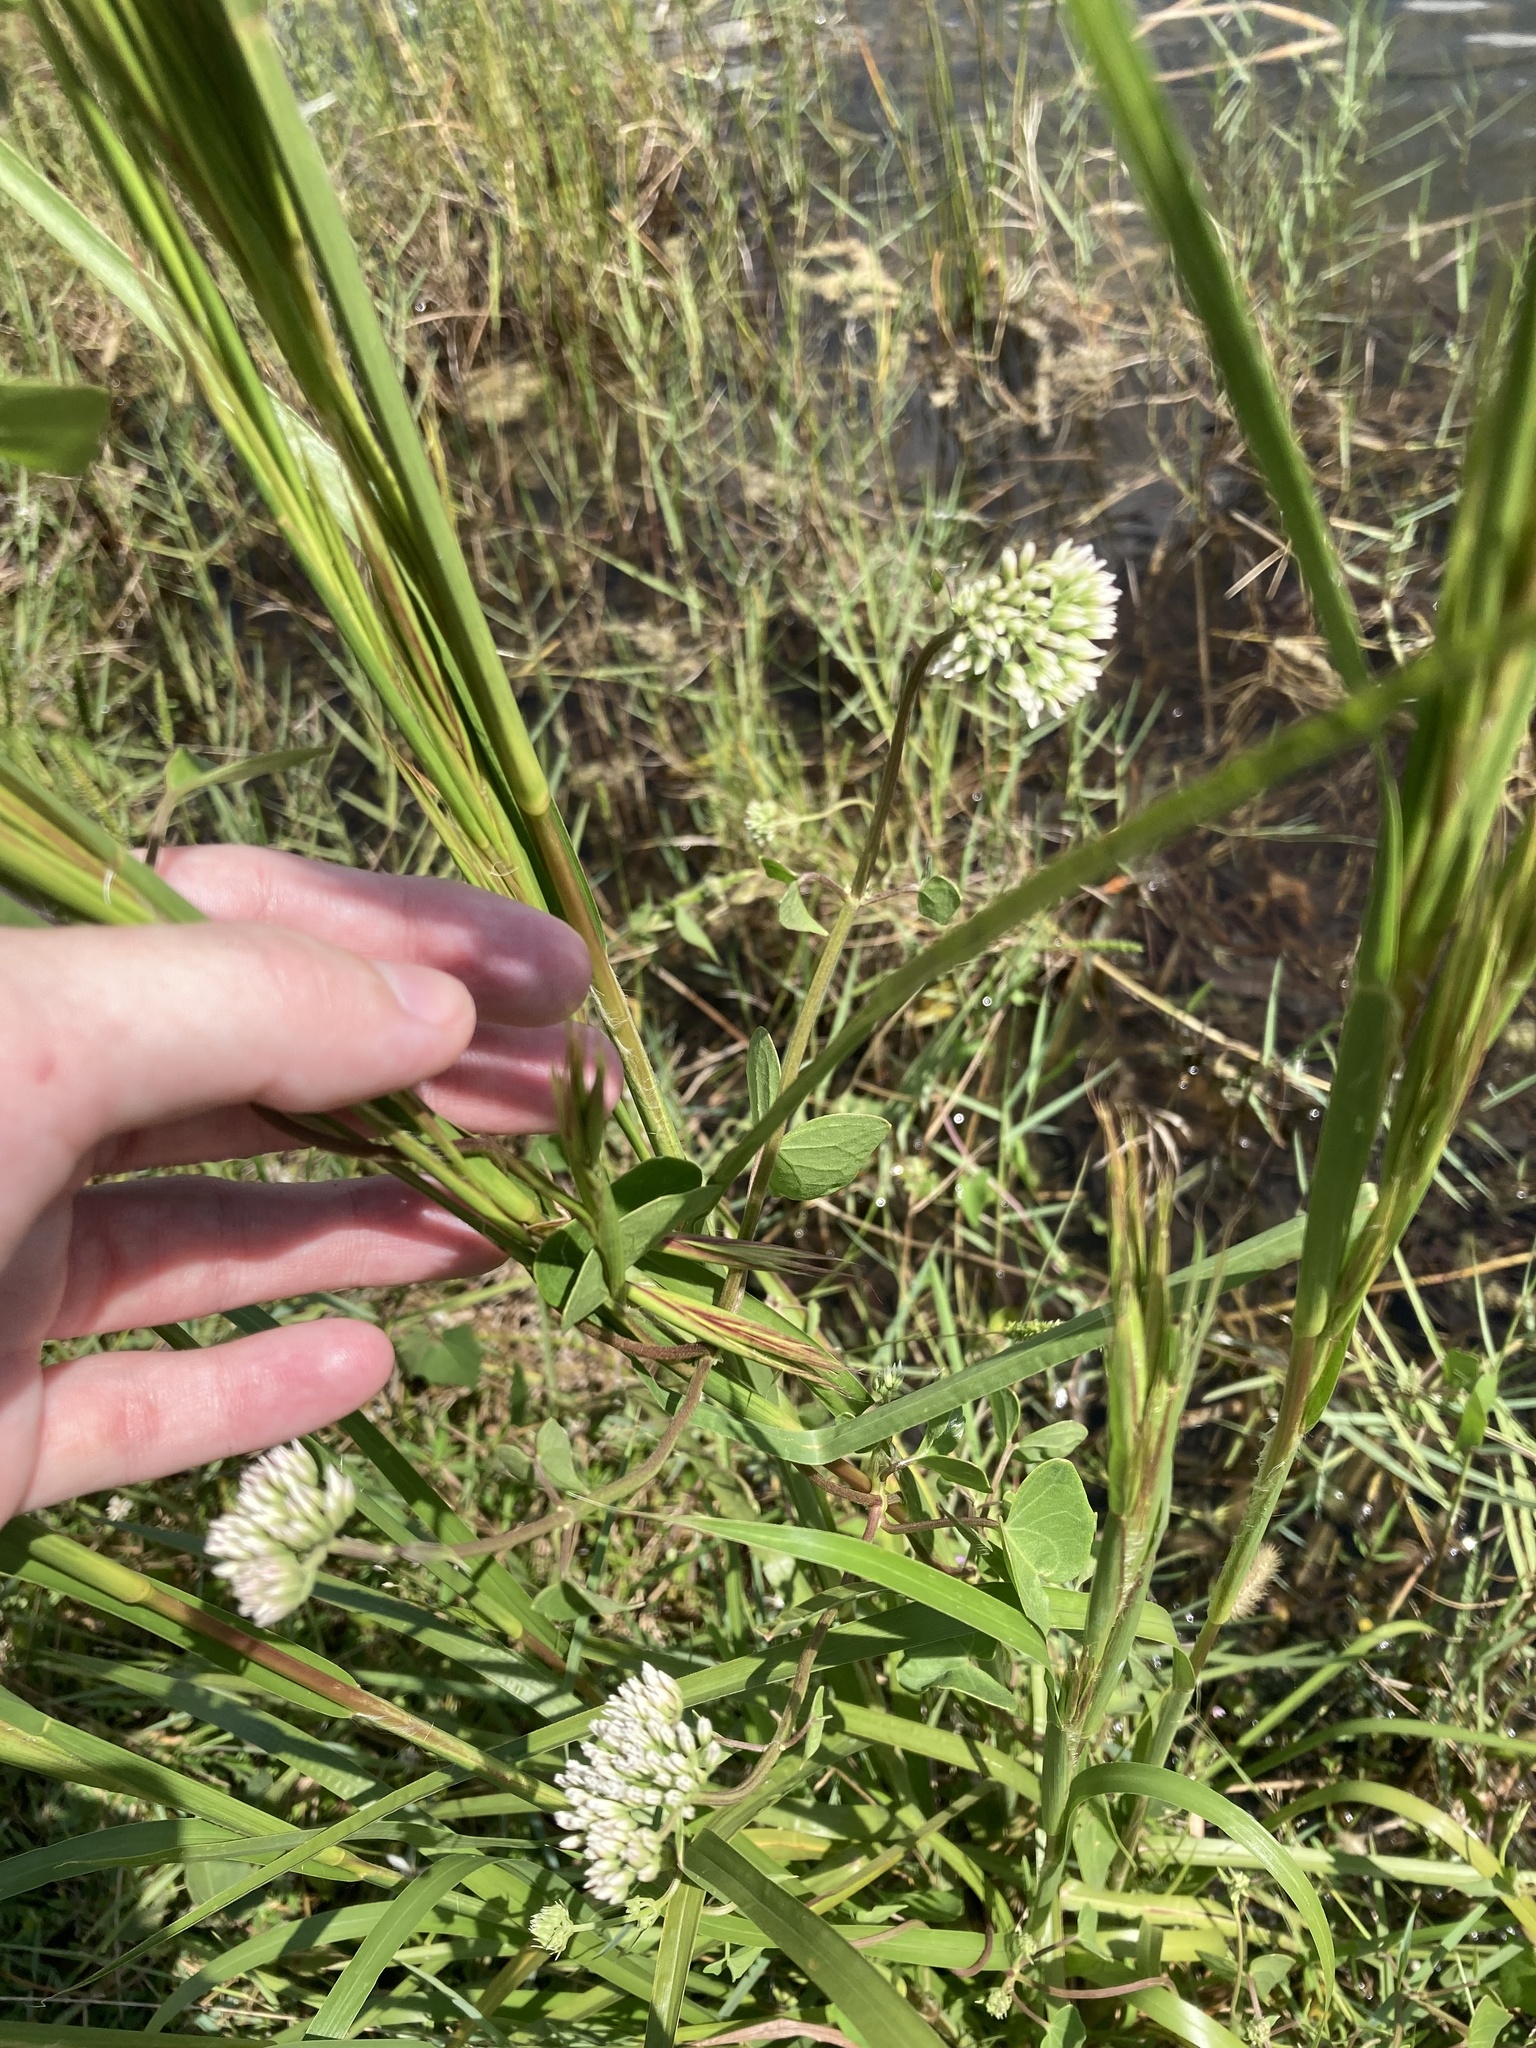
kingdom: Plantae
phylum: Tracheophyta
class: Magnoliopsida
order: Asterales
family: Asteraceae
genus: Mikania
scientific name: Mikania scandens
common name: Climbing hempvine
